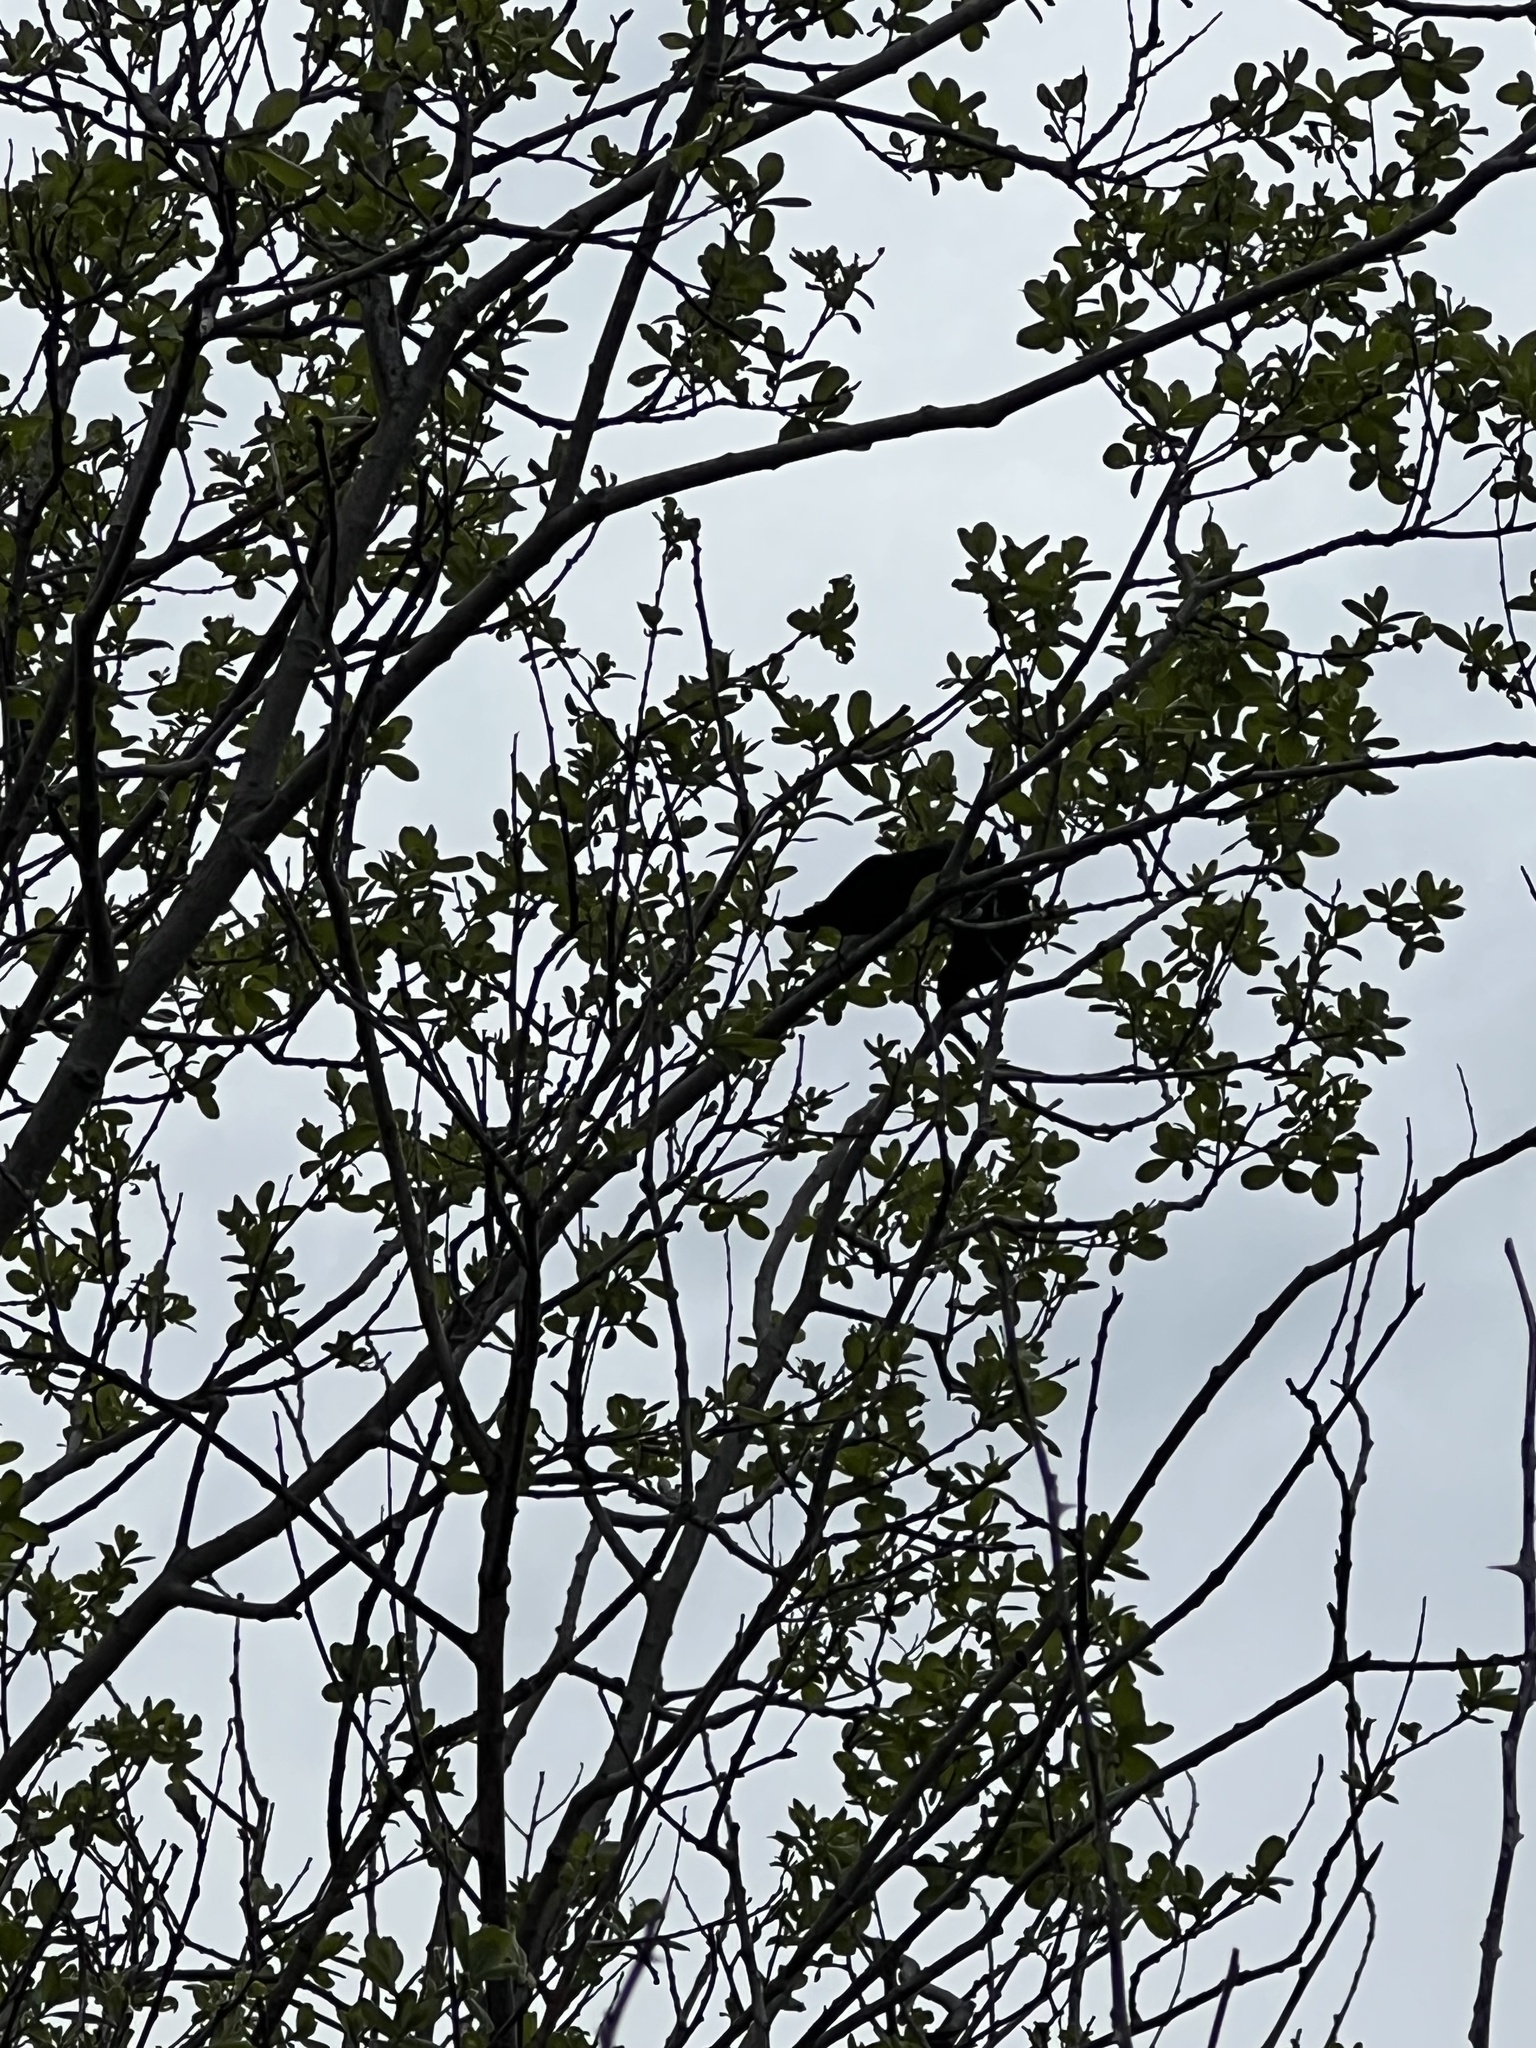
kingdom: Animalia
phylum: Chordata
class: Aves
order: Passeriformes
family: Icteridae
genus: Molothrus
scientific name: Molothrus ater
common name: Brown-headed cowbird
